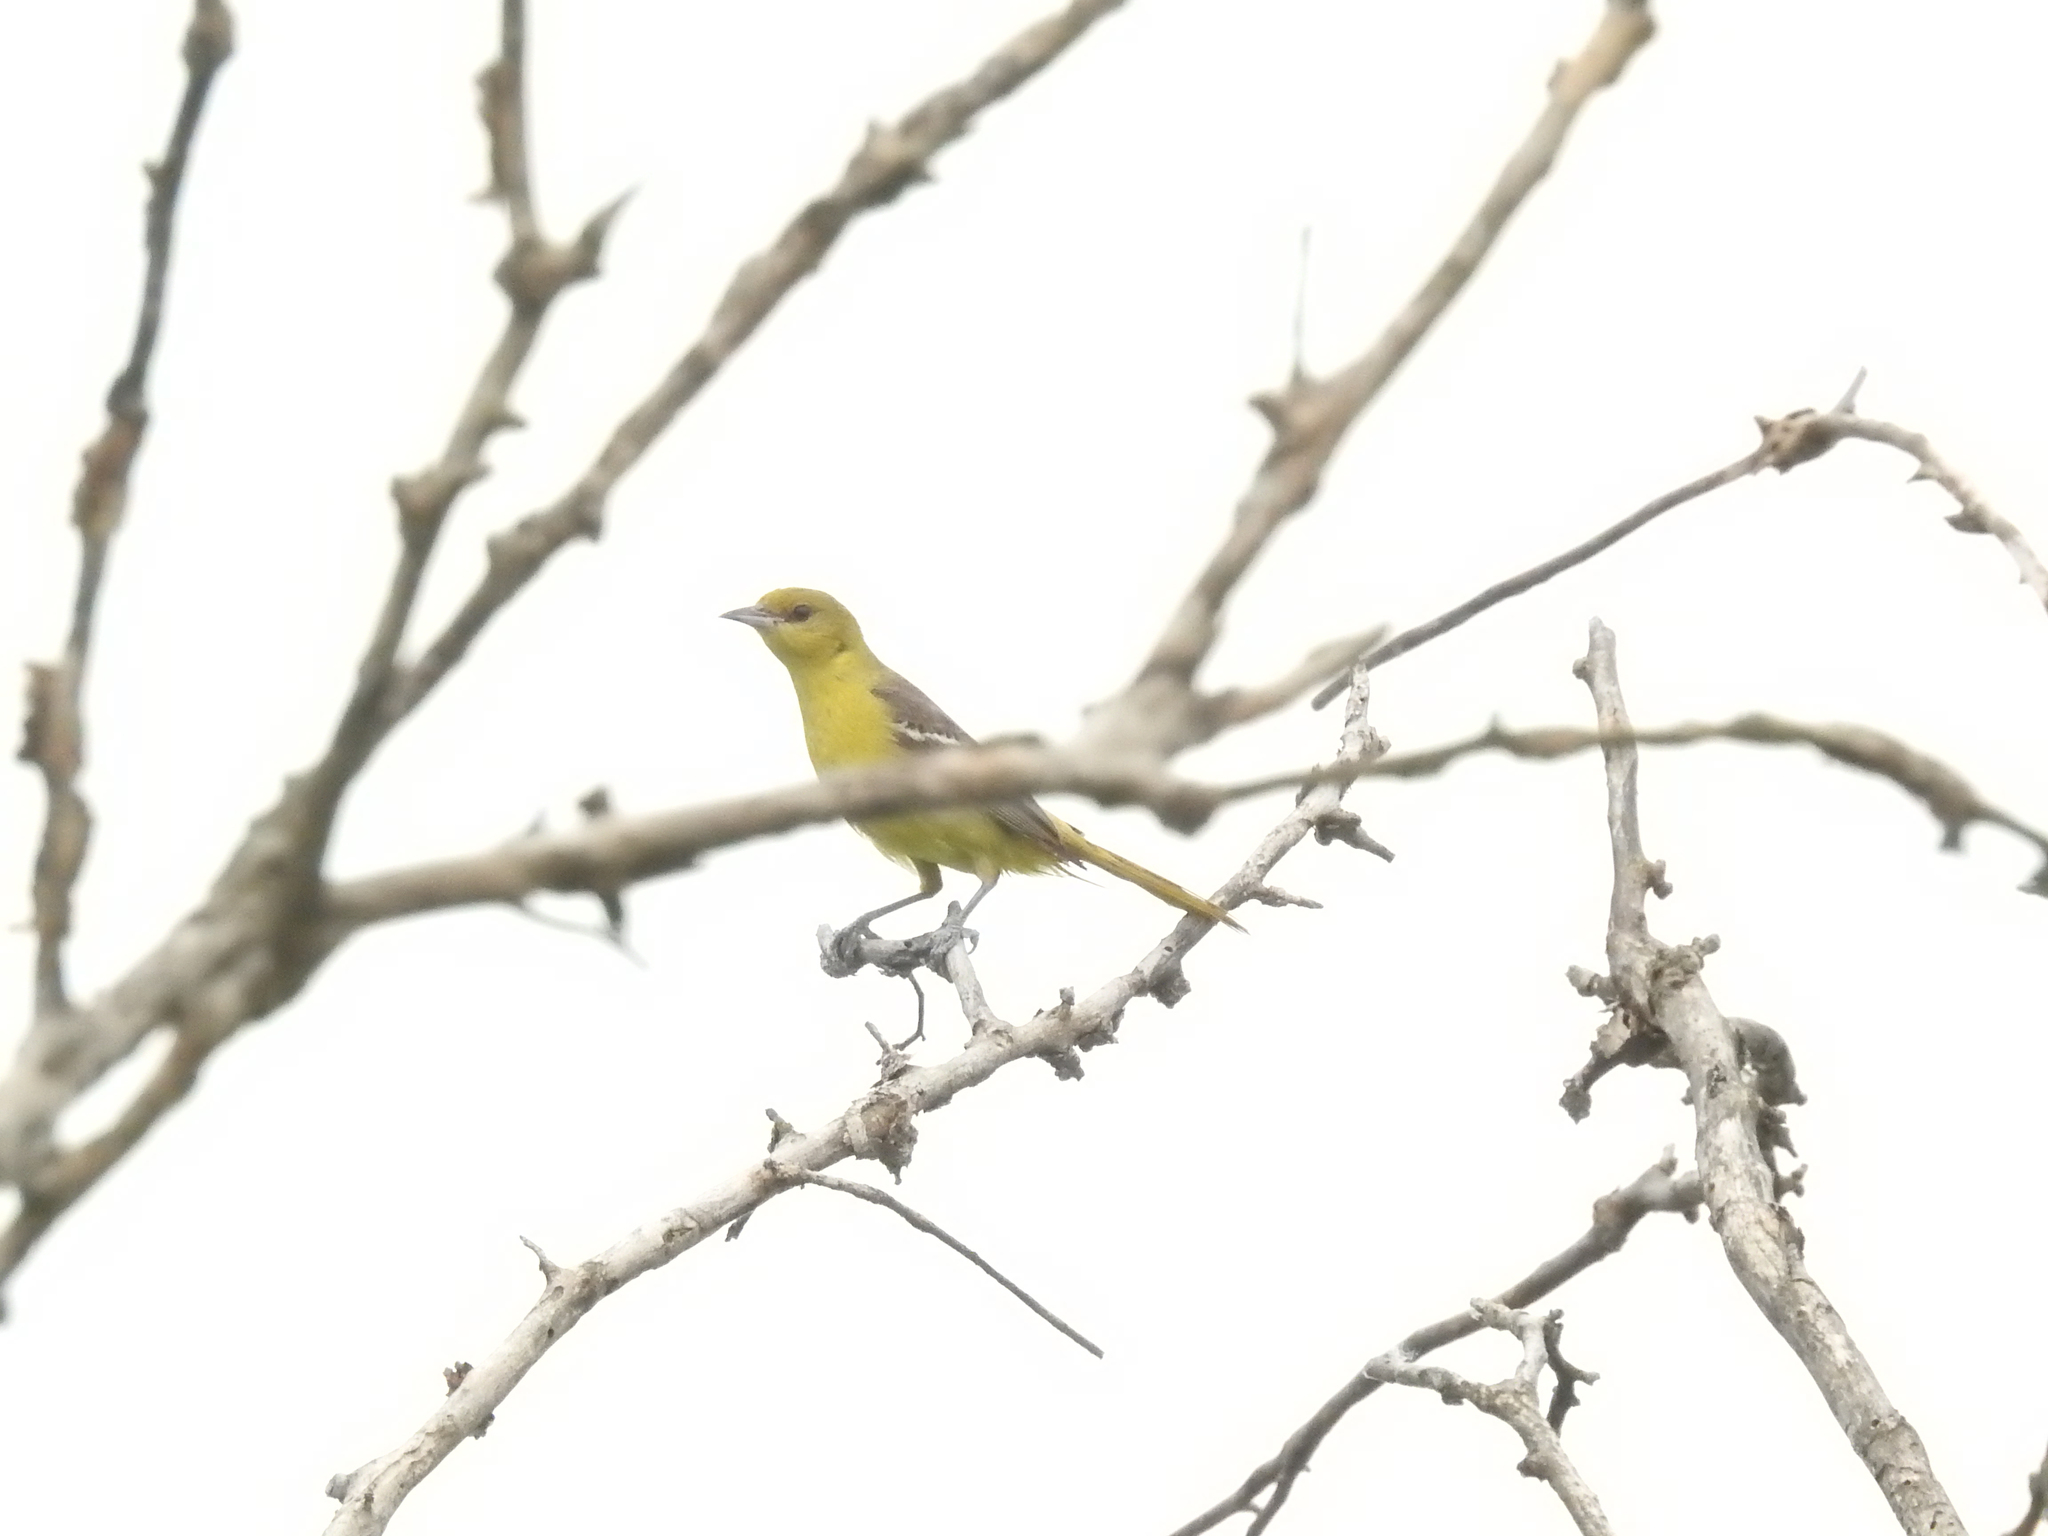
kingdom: Animalia
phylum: Chordata
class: Aves
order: Passeriformes
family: Icteridae
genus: Icterus
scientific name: Icterus spurius
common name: Orchard oriole
